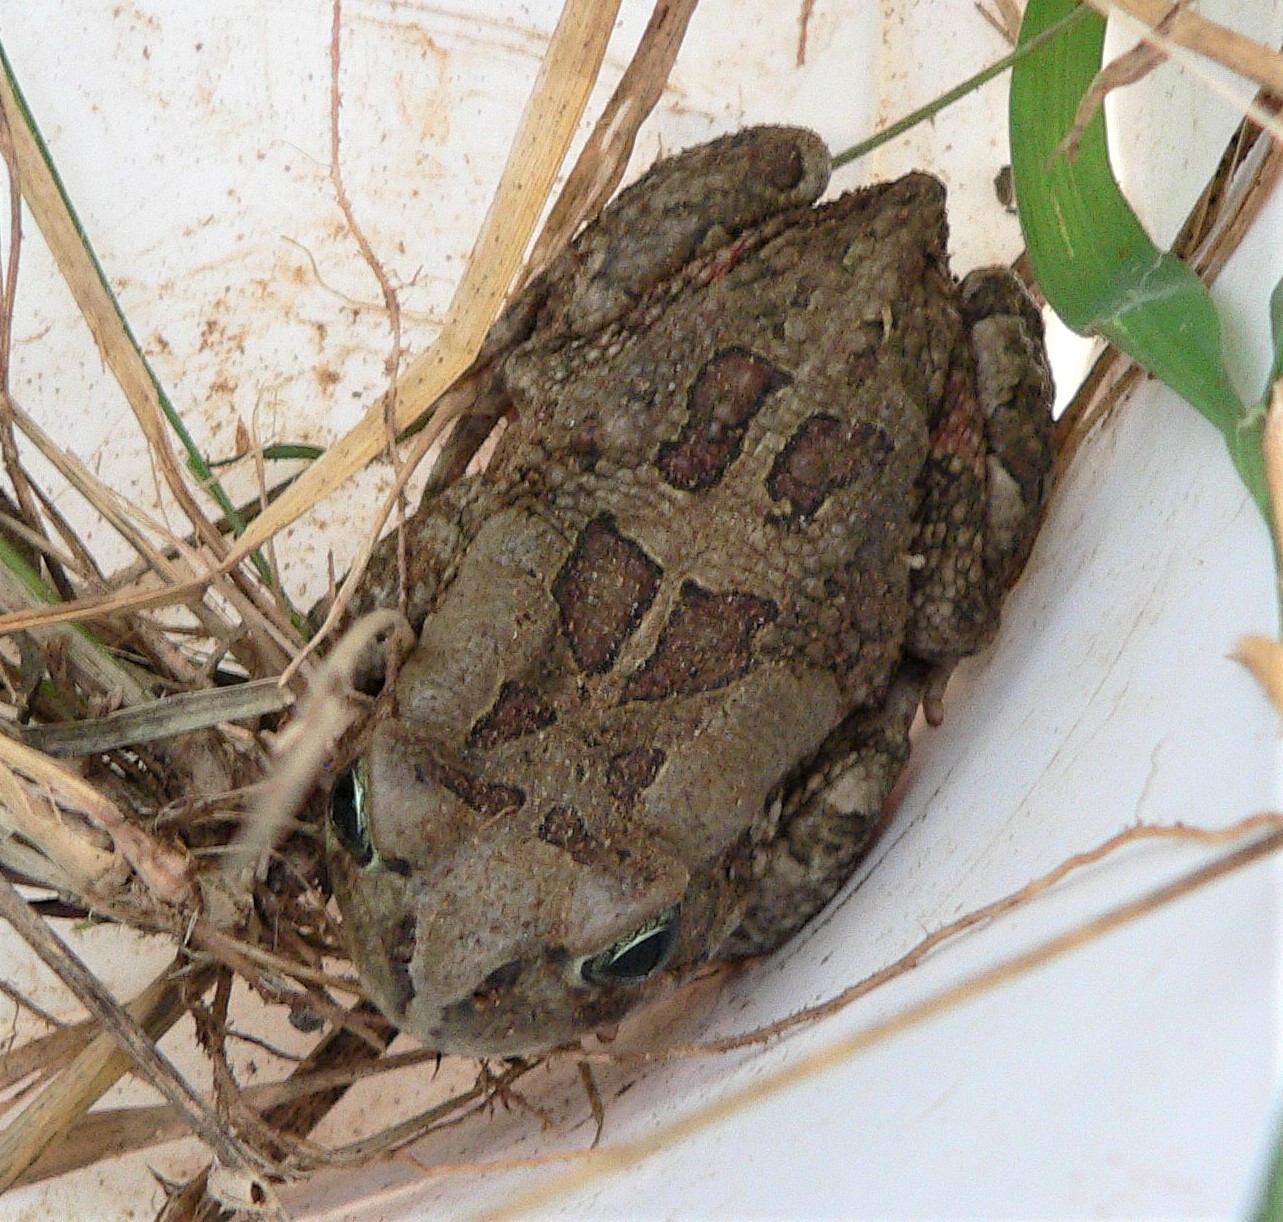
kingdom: Animalia
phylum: Chordata
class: Amphibia
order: Anura
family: Bufonidae
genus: Sclerophrys
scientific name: Sclerophrys garmani
